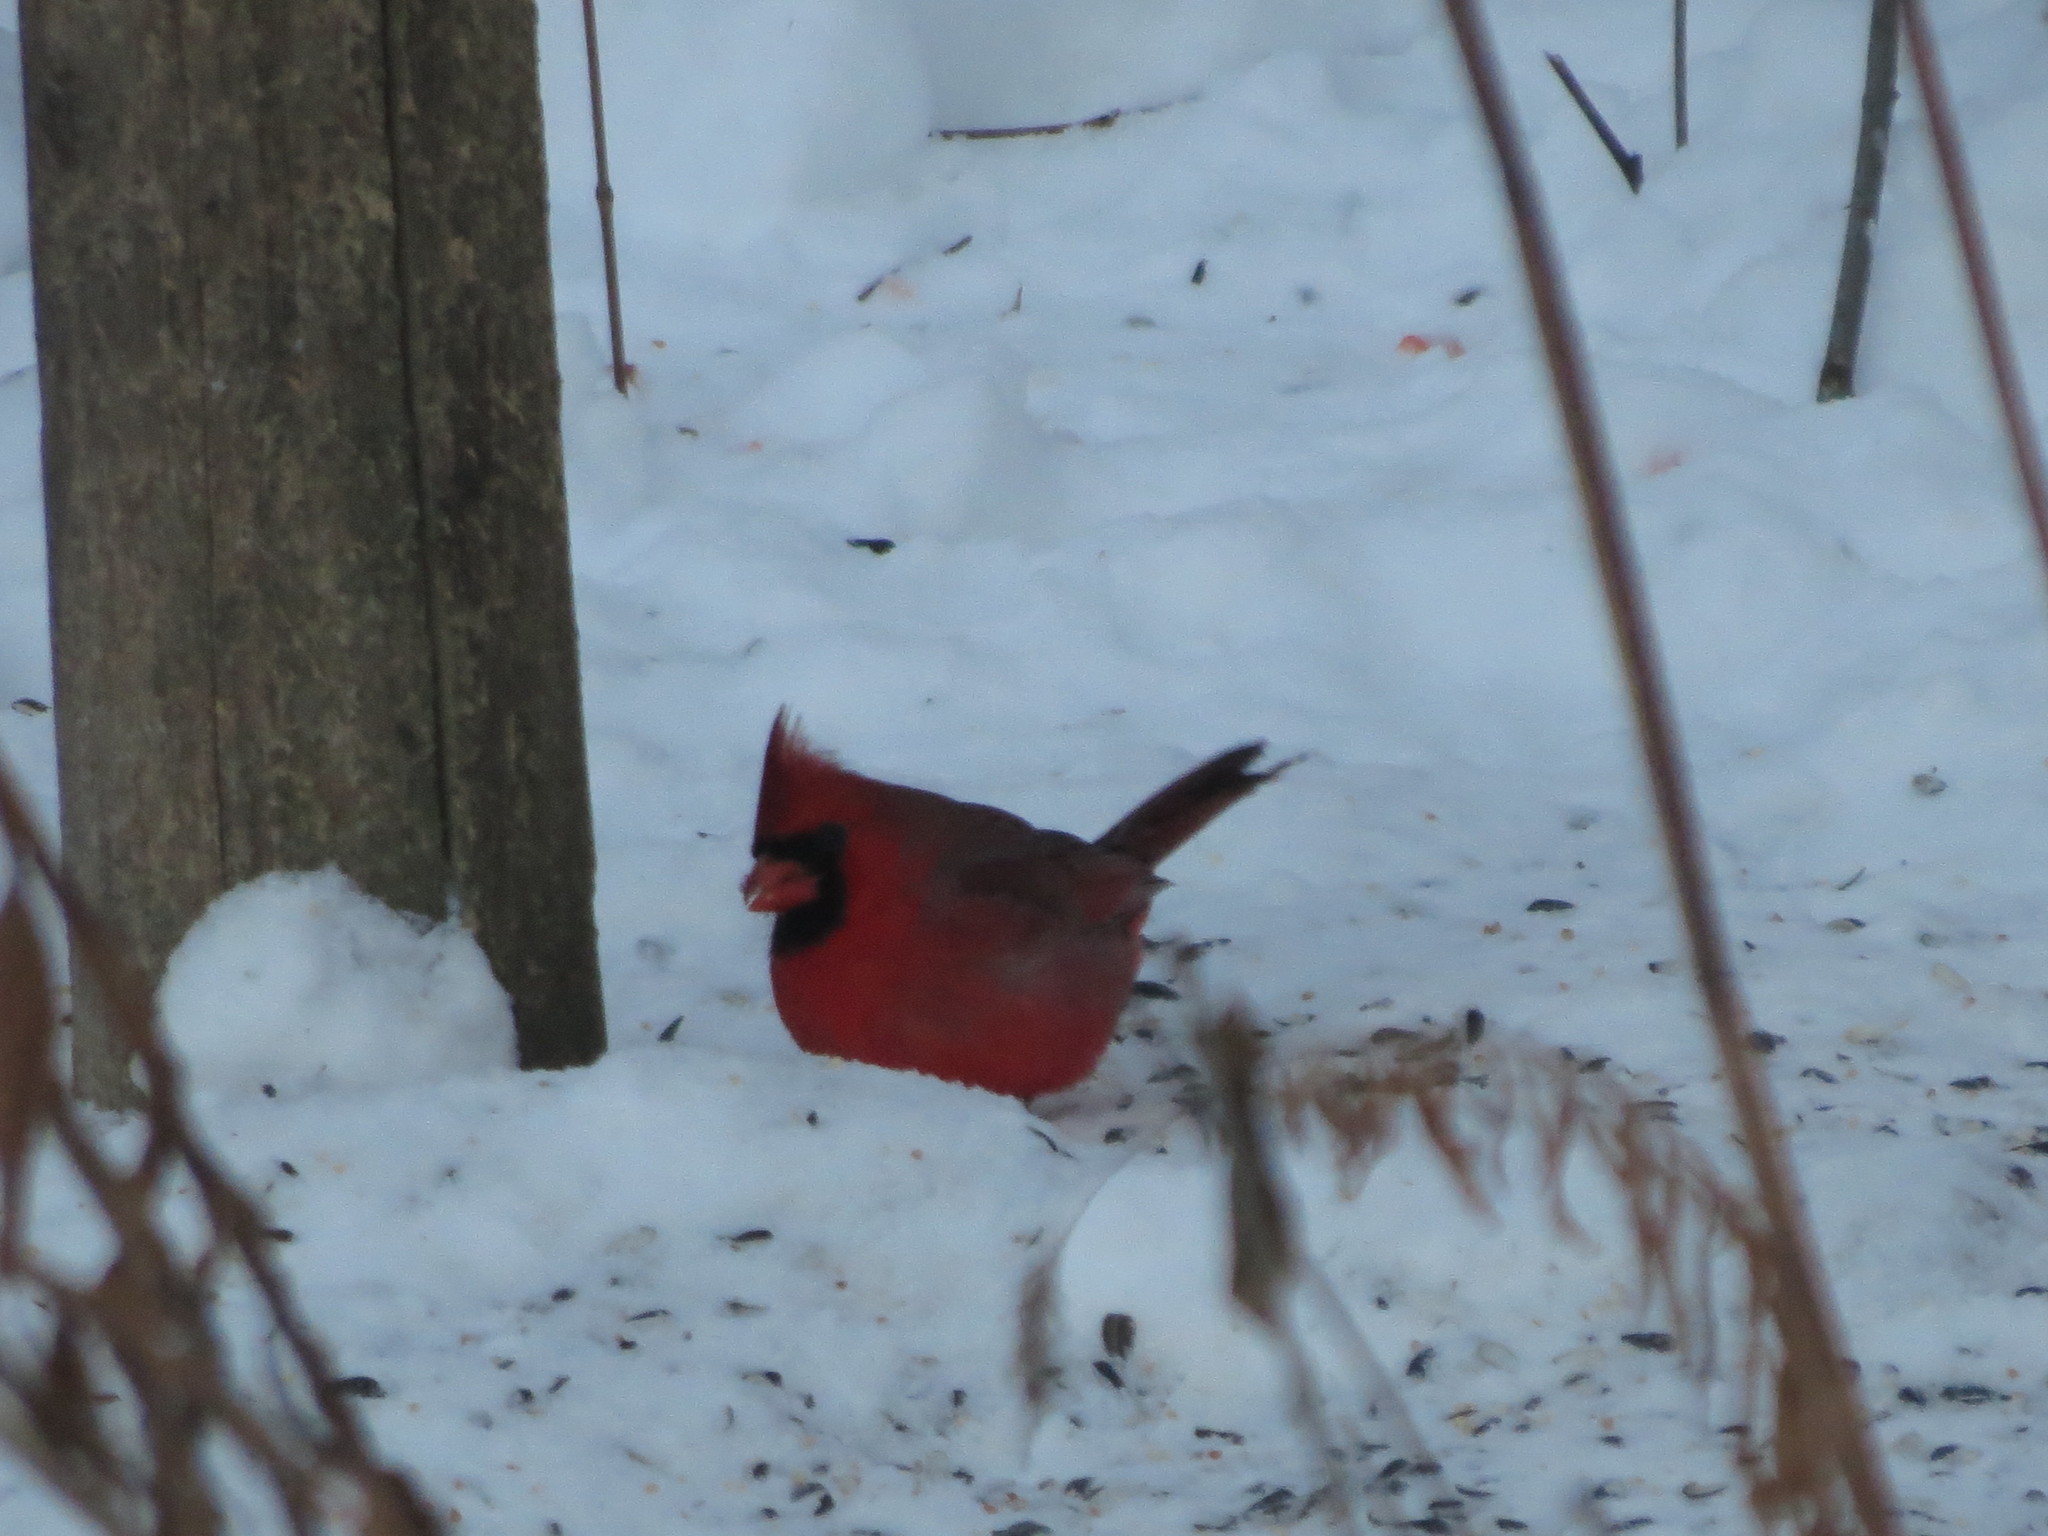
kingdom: Animalia
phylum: Chordata
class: Aves
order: Passeriformes
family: Cardinalidae
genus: Cardinalis
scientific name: Cardinalis cardinalis
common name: Northern cardinal
